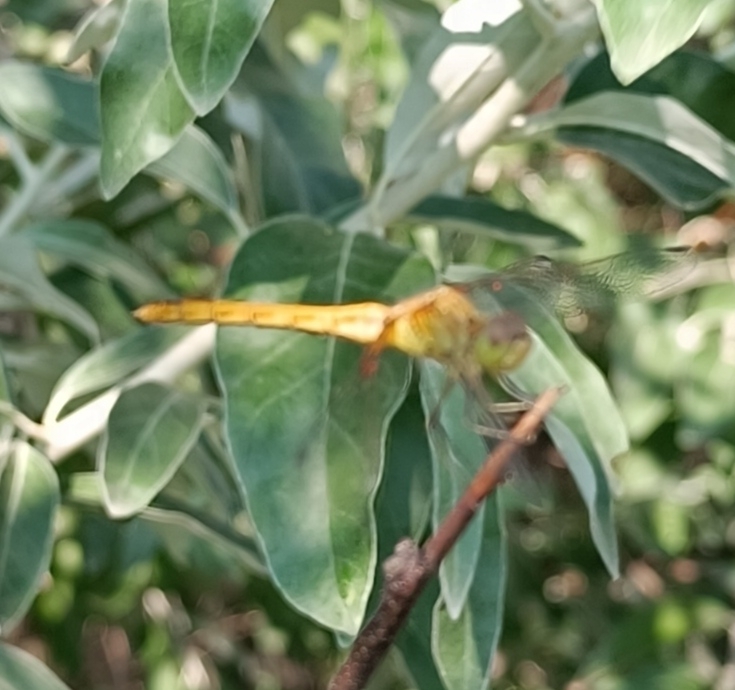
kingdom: Animalia
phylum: Arthropoda
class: Insecta
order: Odonata
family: Libellulidae
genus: Sympetrum
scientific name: Sympetrum meridionale
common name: Southern darter
